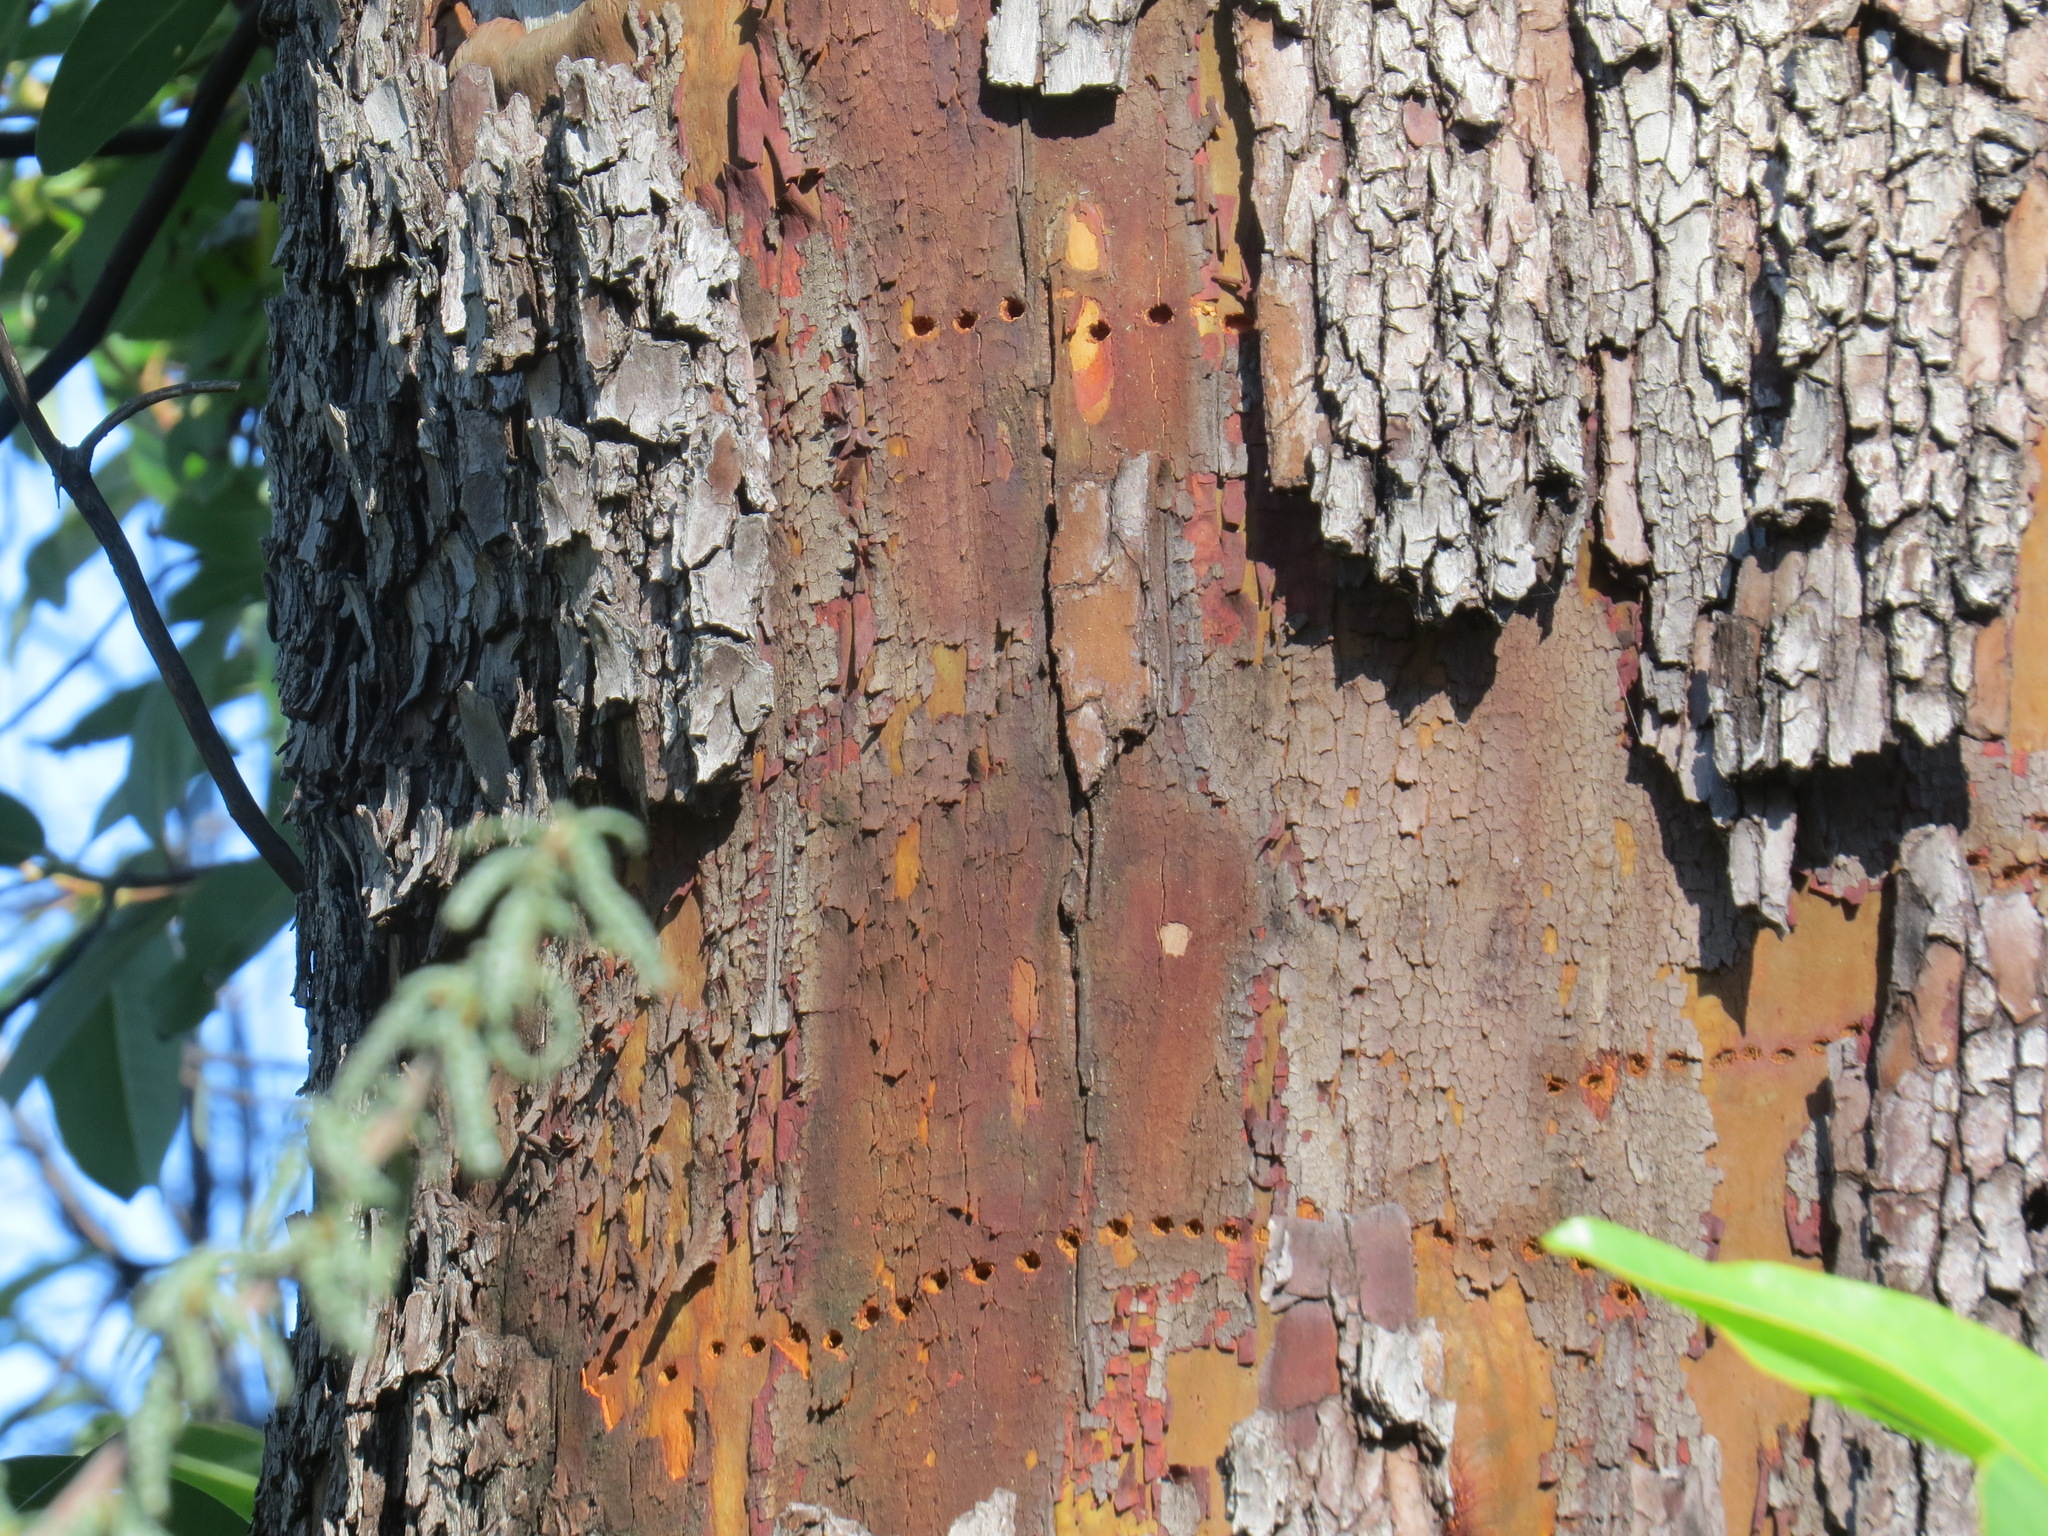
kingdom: Animalia
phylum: Chordata
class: Aves
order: Piciformes
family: Picidae
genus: Sphyrapicus
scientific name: Sphyrapicus
